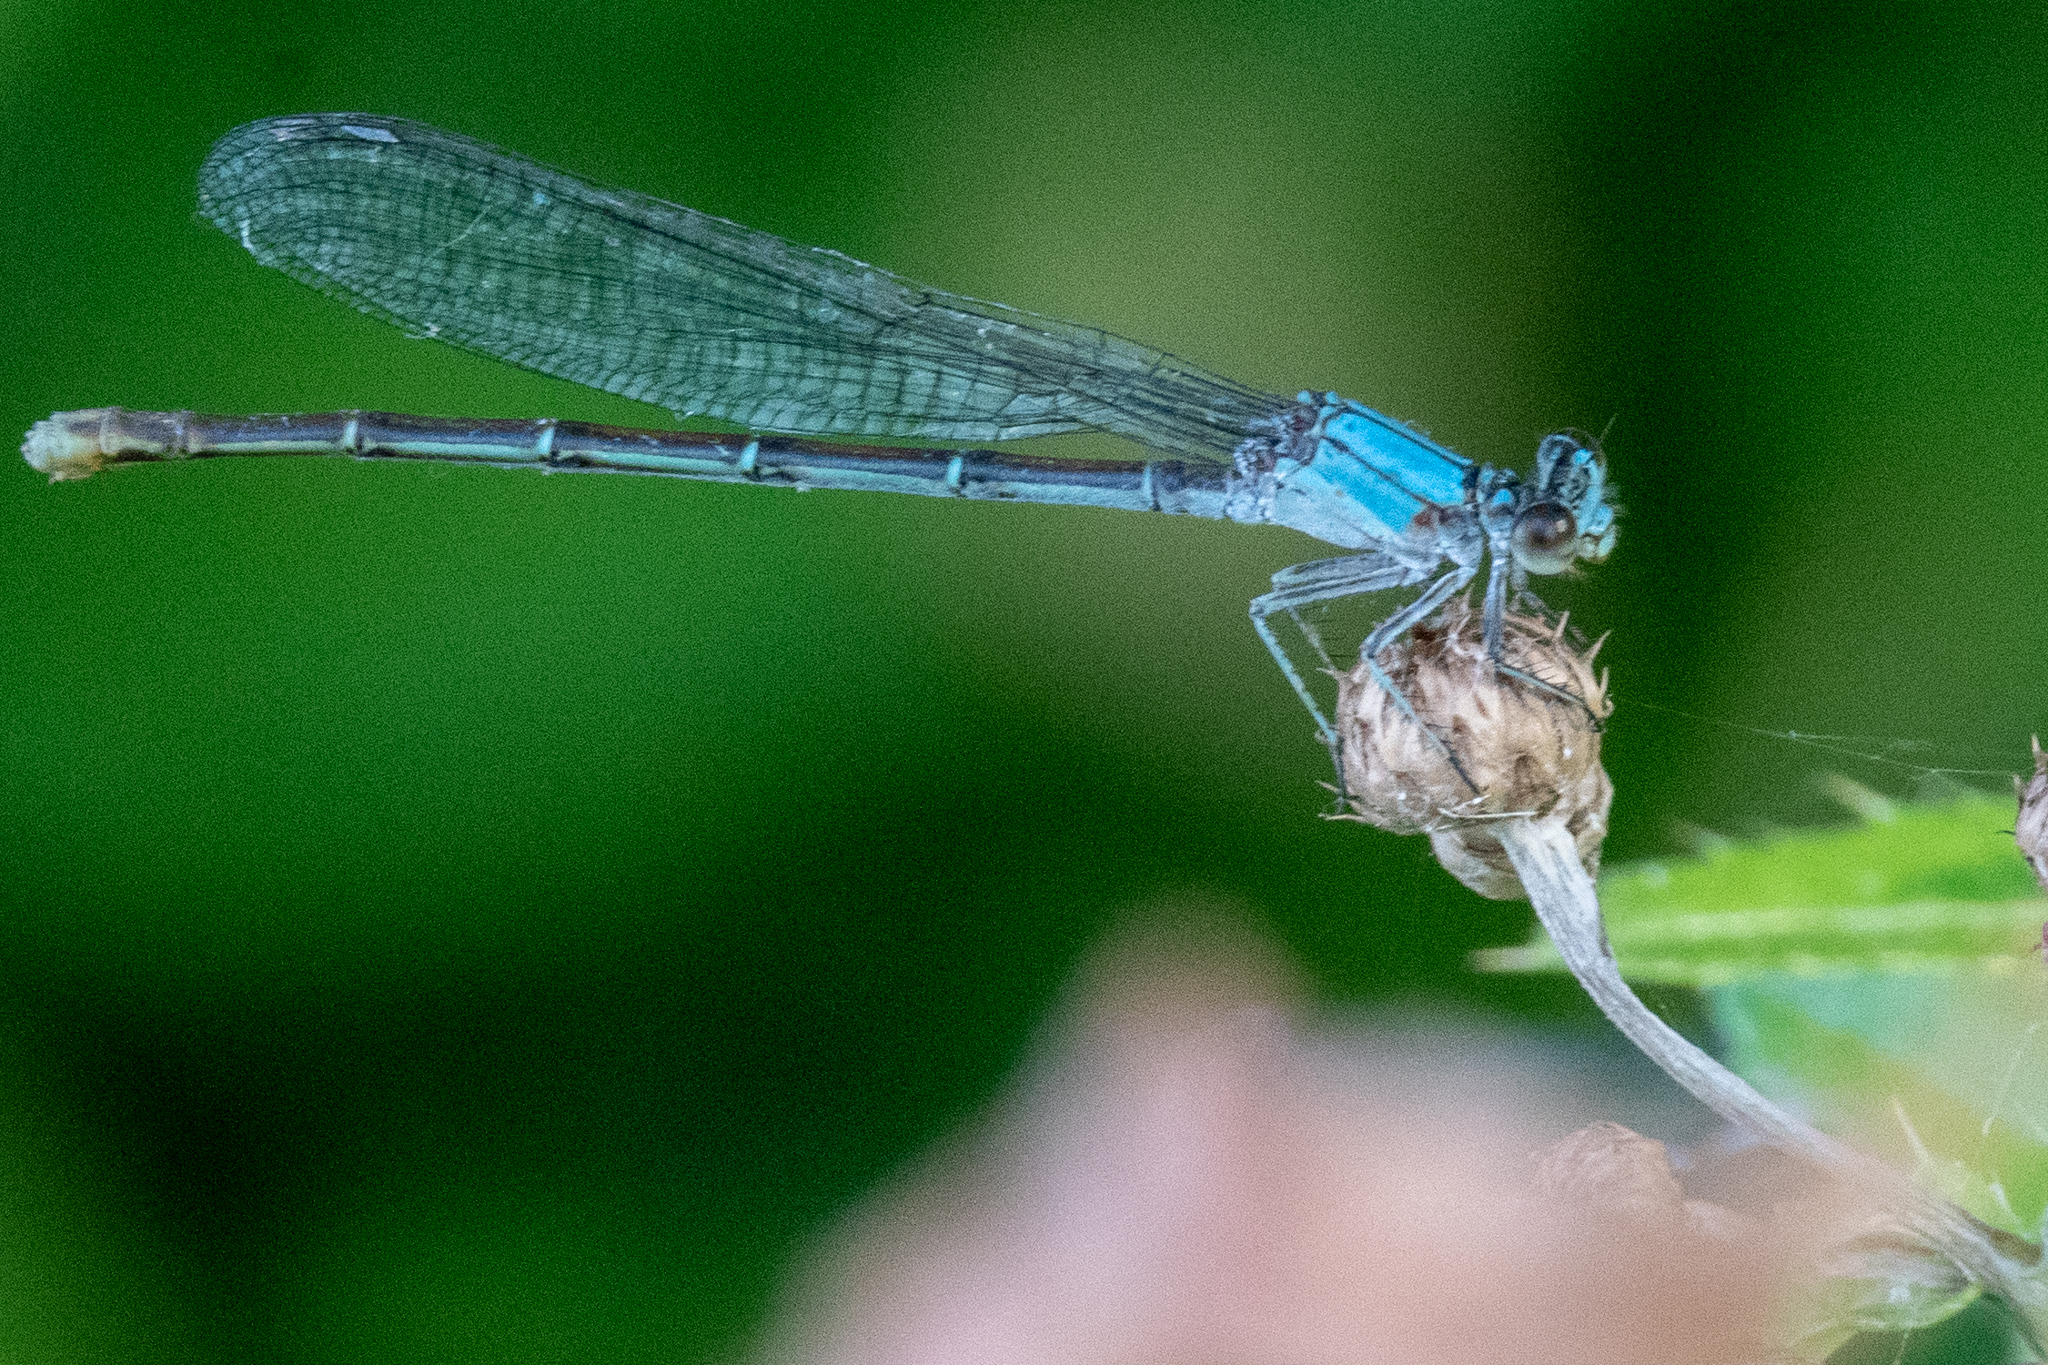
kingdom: Animalia
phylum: Arthropoda
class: Insecta
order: Odonata
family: Coenagrionidae
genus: Argia
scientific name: Argia moesta
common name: Powdered dancer
